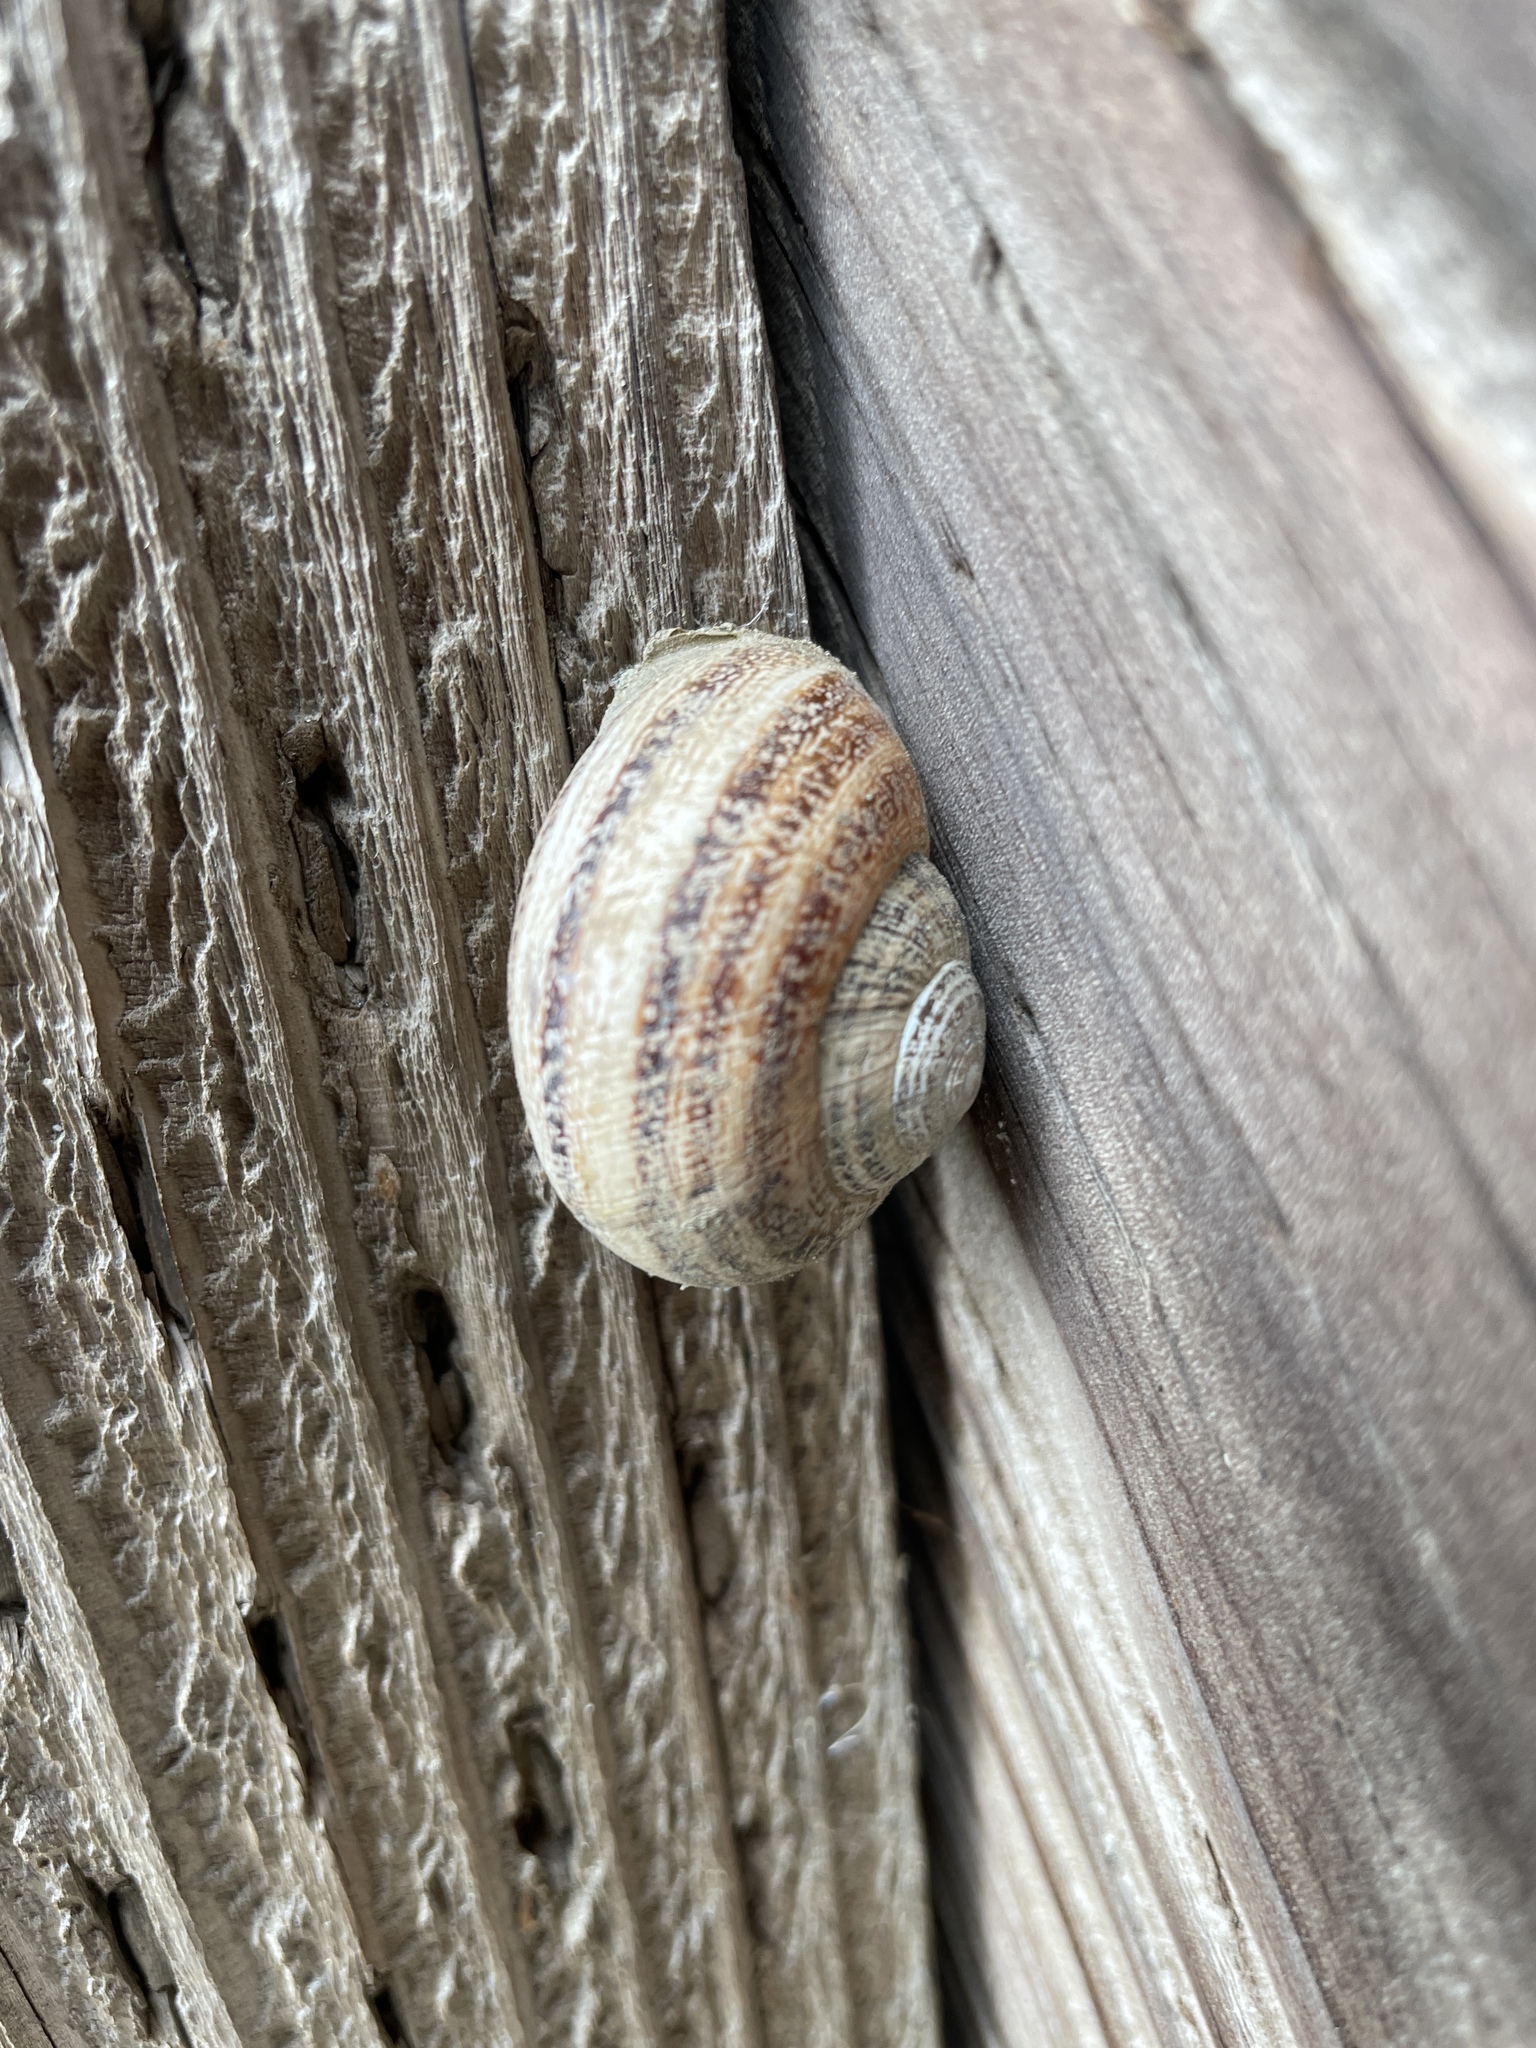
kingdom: Animalia
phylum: Mollusca
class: Gastropoda
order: Stylommatophora
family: Helicidae
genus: Otala
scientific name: Otala lactea
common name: Milk snail
